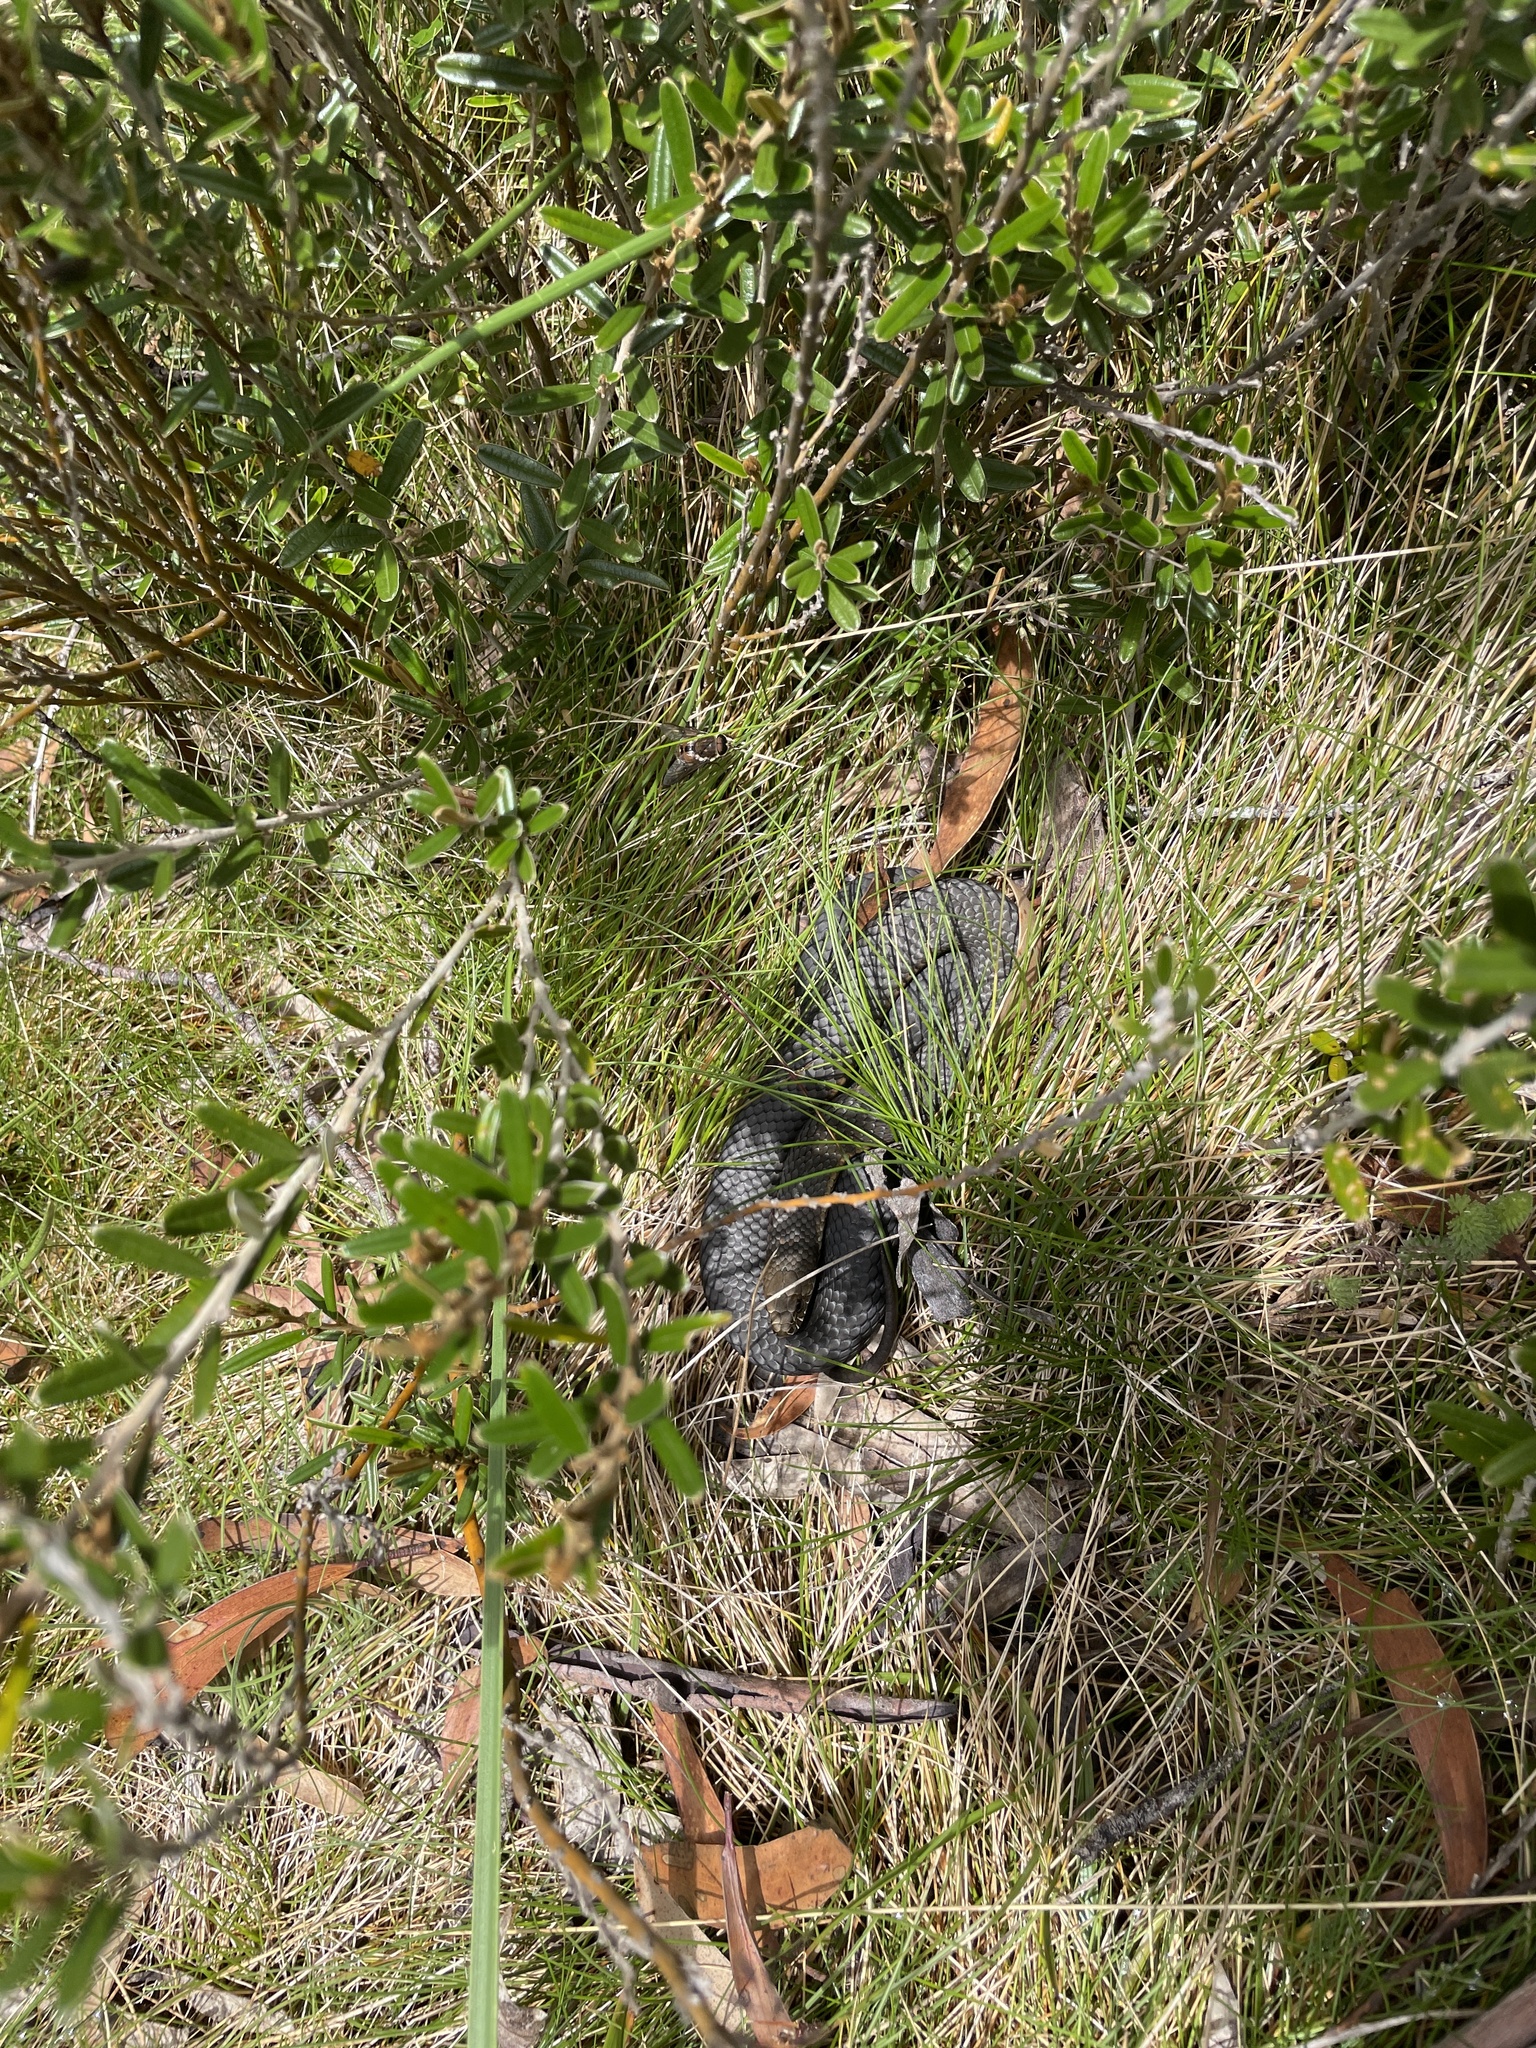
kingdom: Animalia
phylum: Chordata
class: Squamata
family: Elapidae
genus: Austrelaps
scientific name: Austrelaps ramsayi
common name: Highlands copperhead
